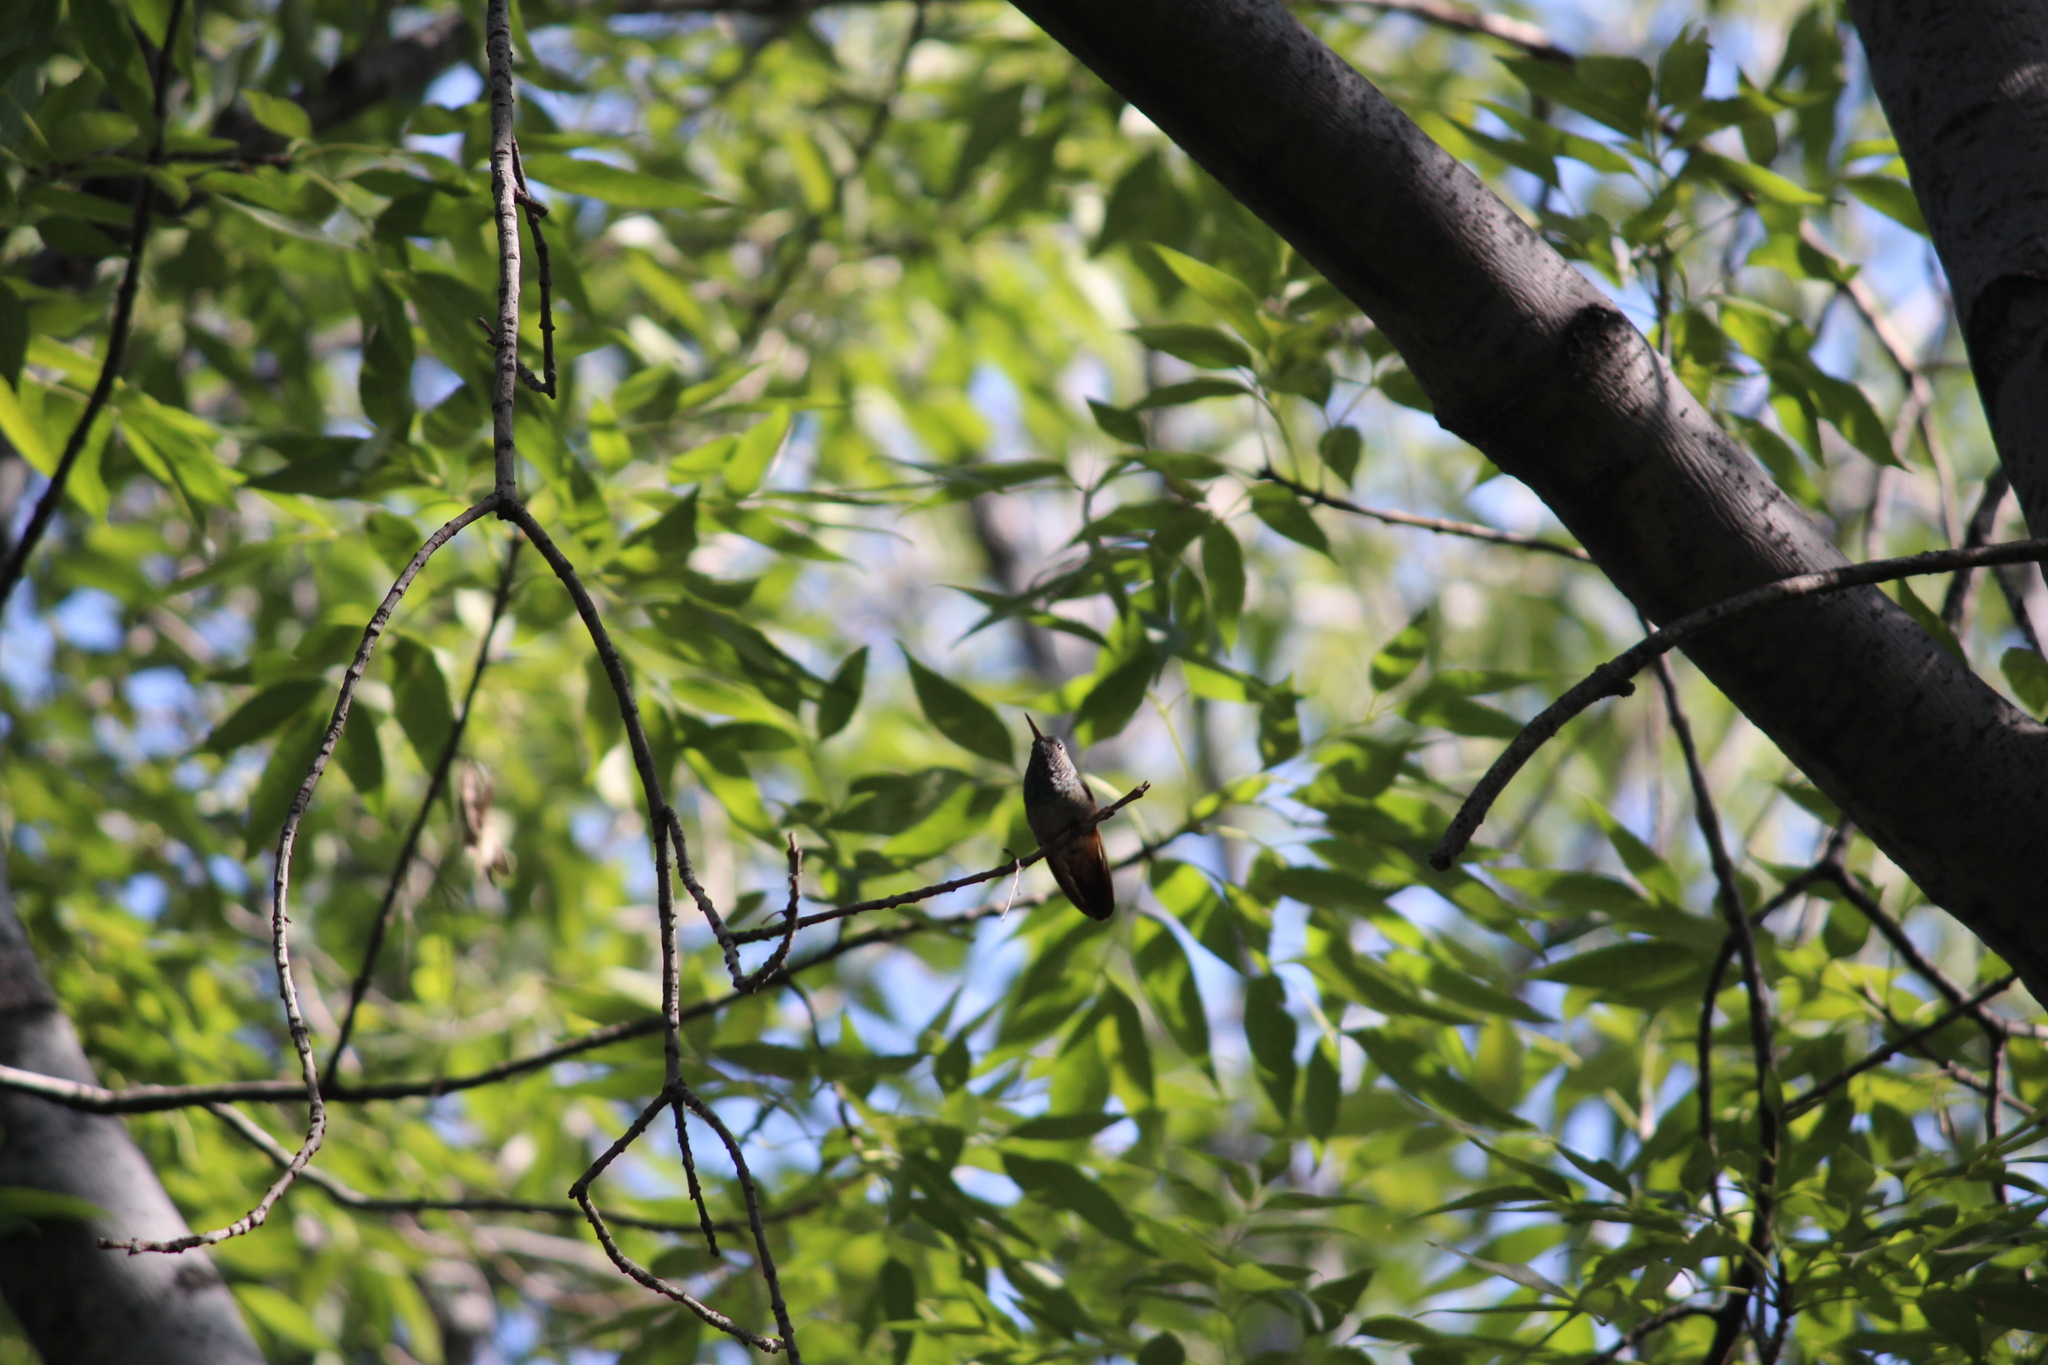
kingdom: Animalia
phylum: Chordata
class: Aves
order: Apodiformes
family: Trochilidae
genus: Saucerottia
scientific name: Saucerottia beryllina
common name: Berylline hummingbird
